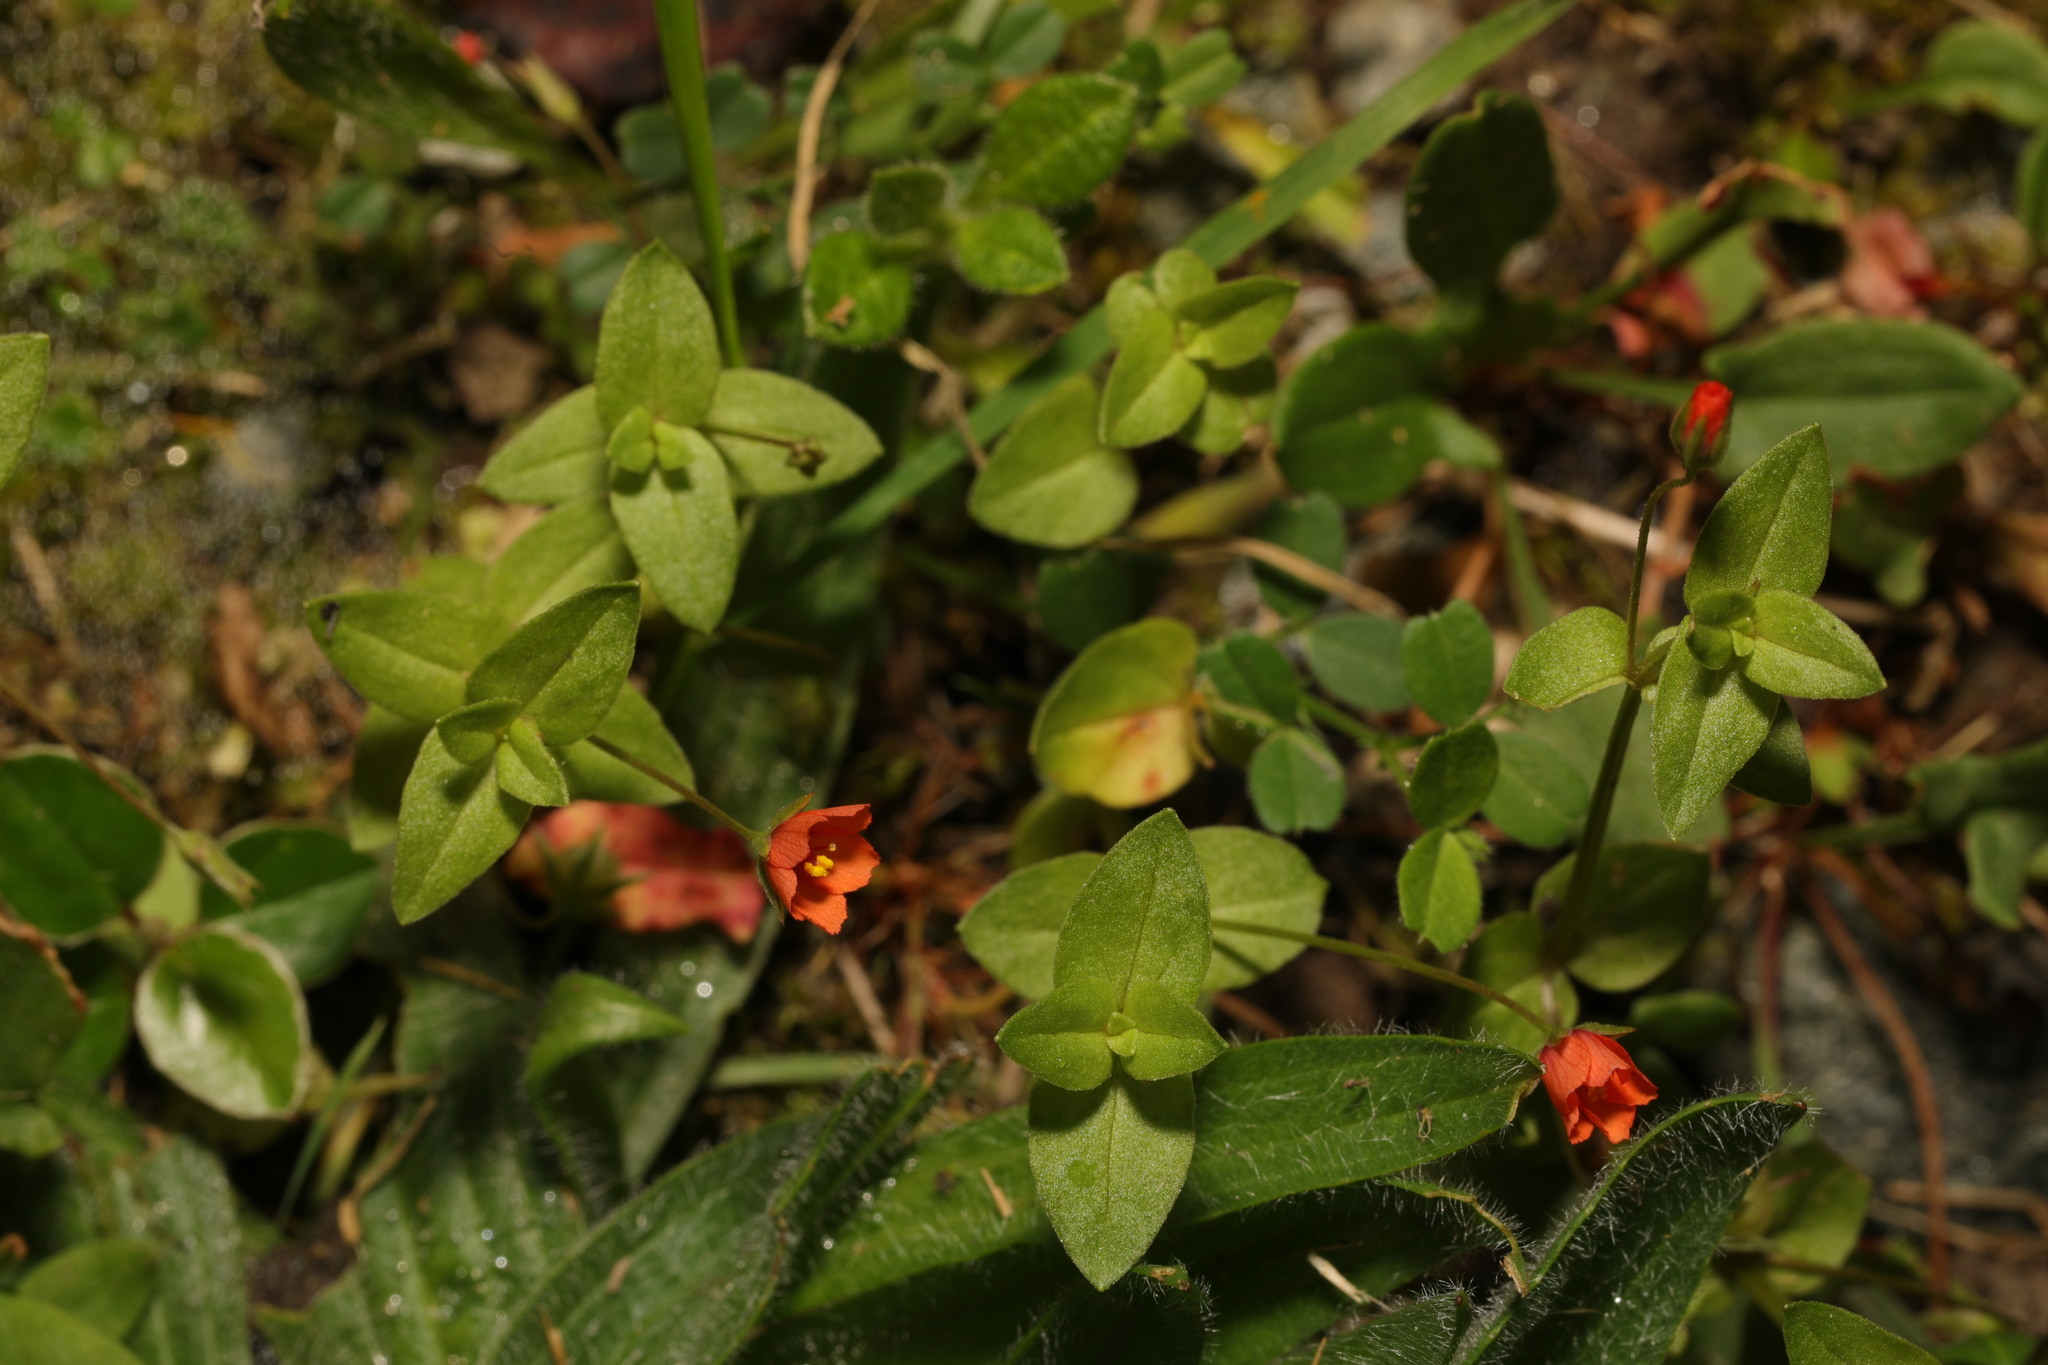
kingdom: Plantae
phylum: Tracheophyta
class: Magnoliopsida
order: Ericales
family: Primulaceae
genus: Lysimachia
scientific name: Lysimachia arvensis
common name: Scarlet pimpernel
